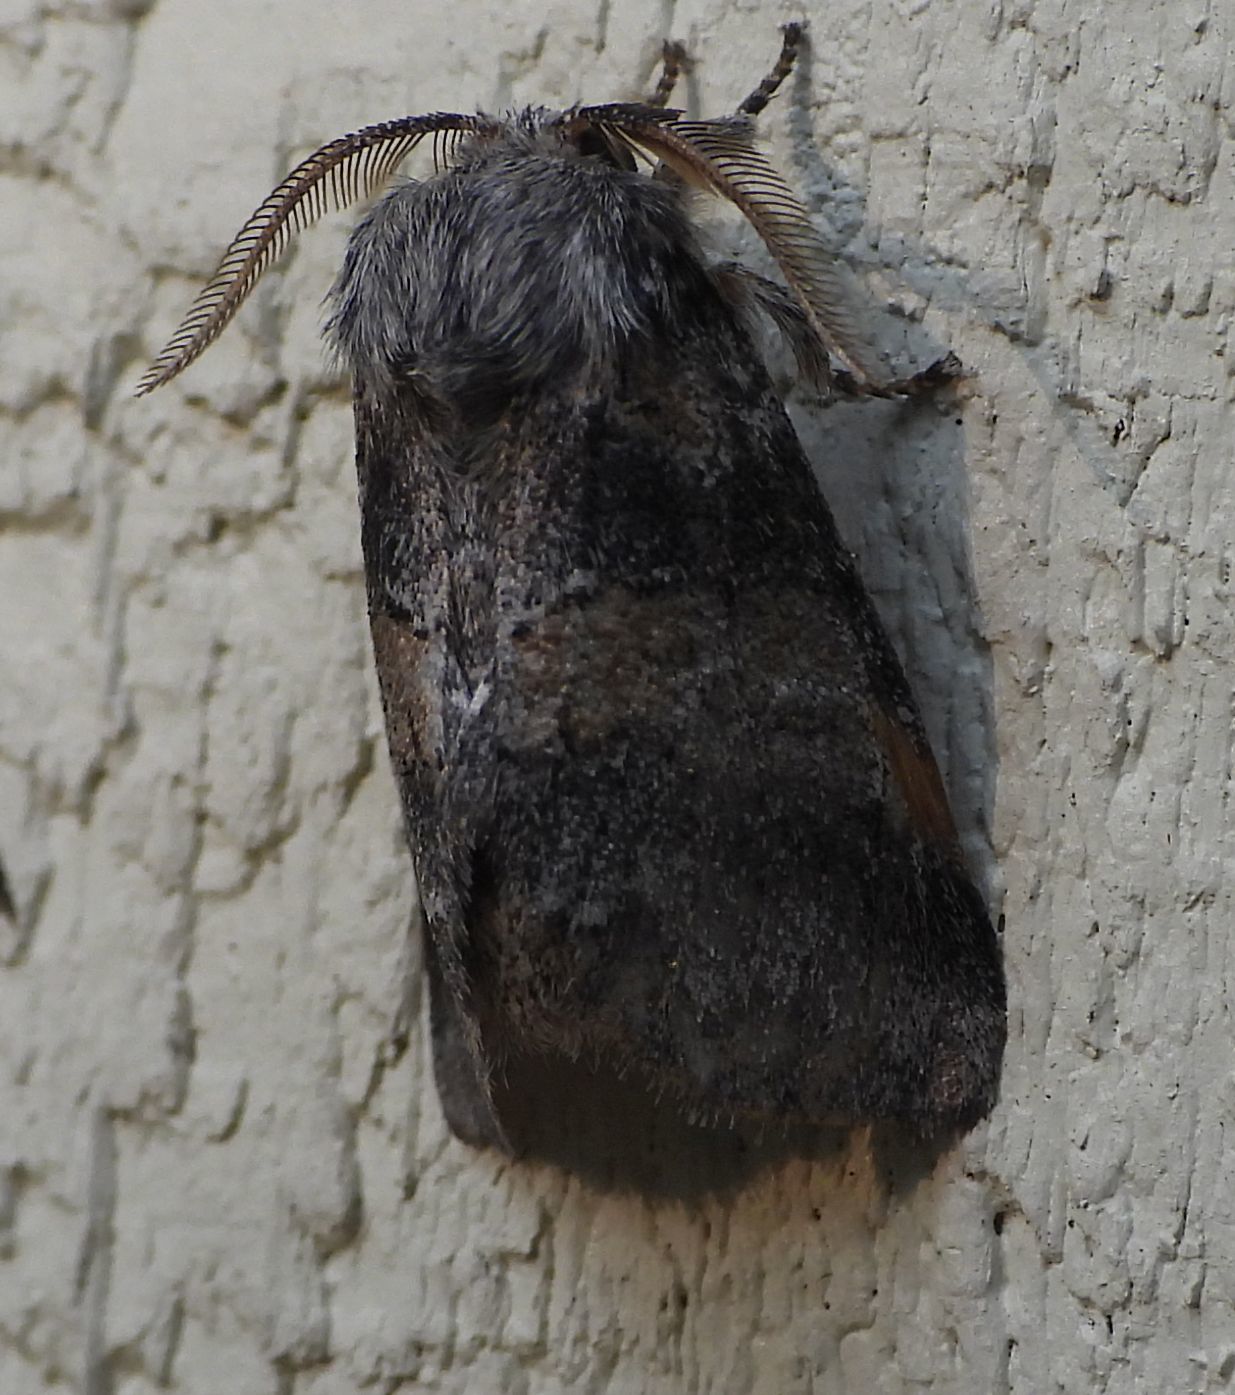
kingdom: Animalia
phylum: Arthropoda
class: Insecta
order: Lepidoptera
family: Notodontidae
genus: Gluphisia
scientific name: Gluphisia septentrionis
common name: Common gluphisia
